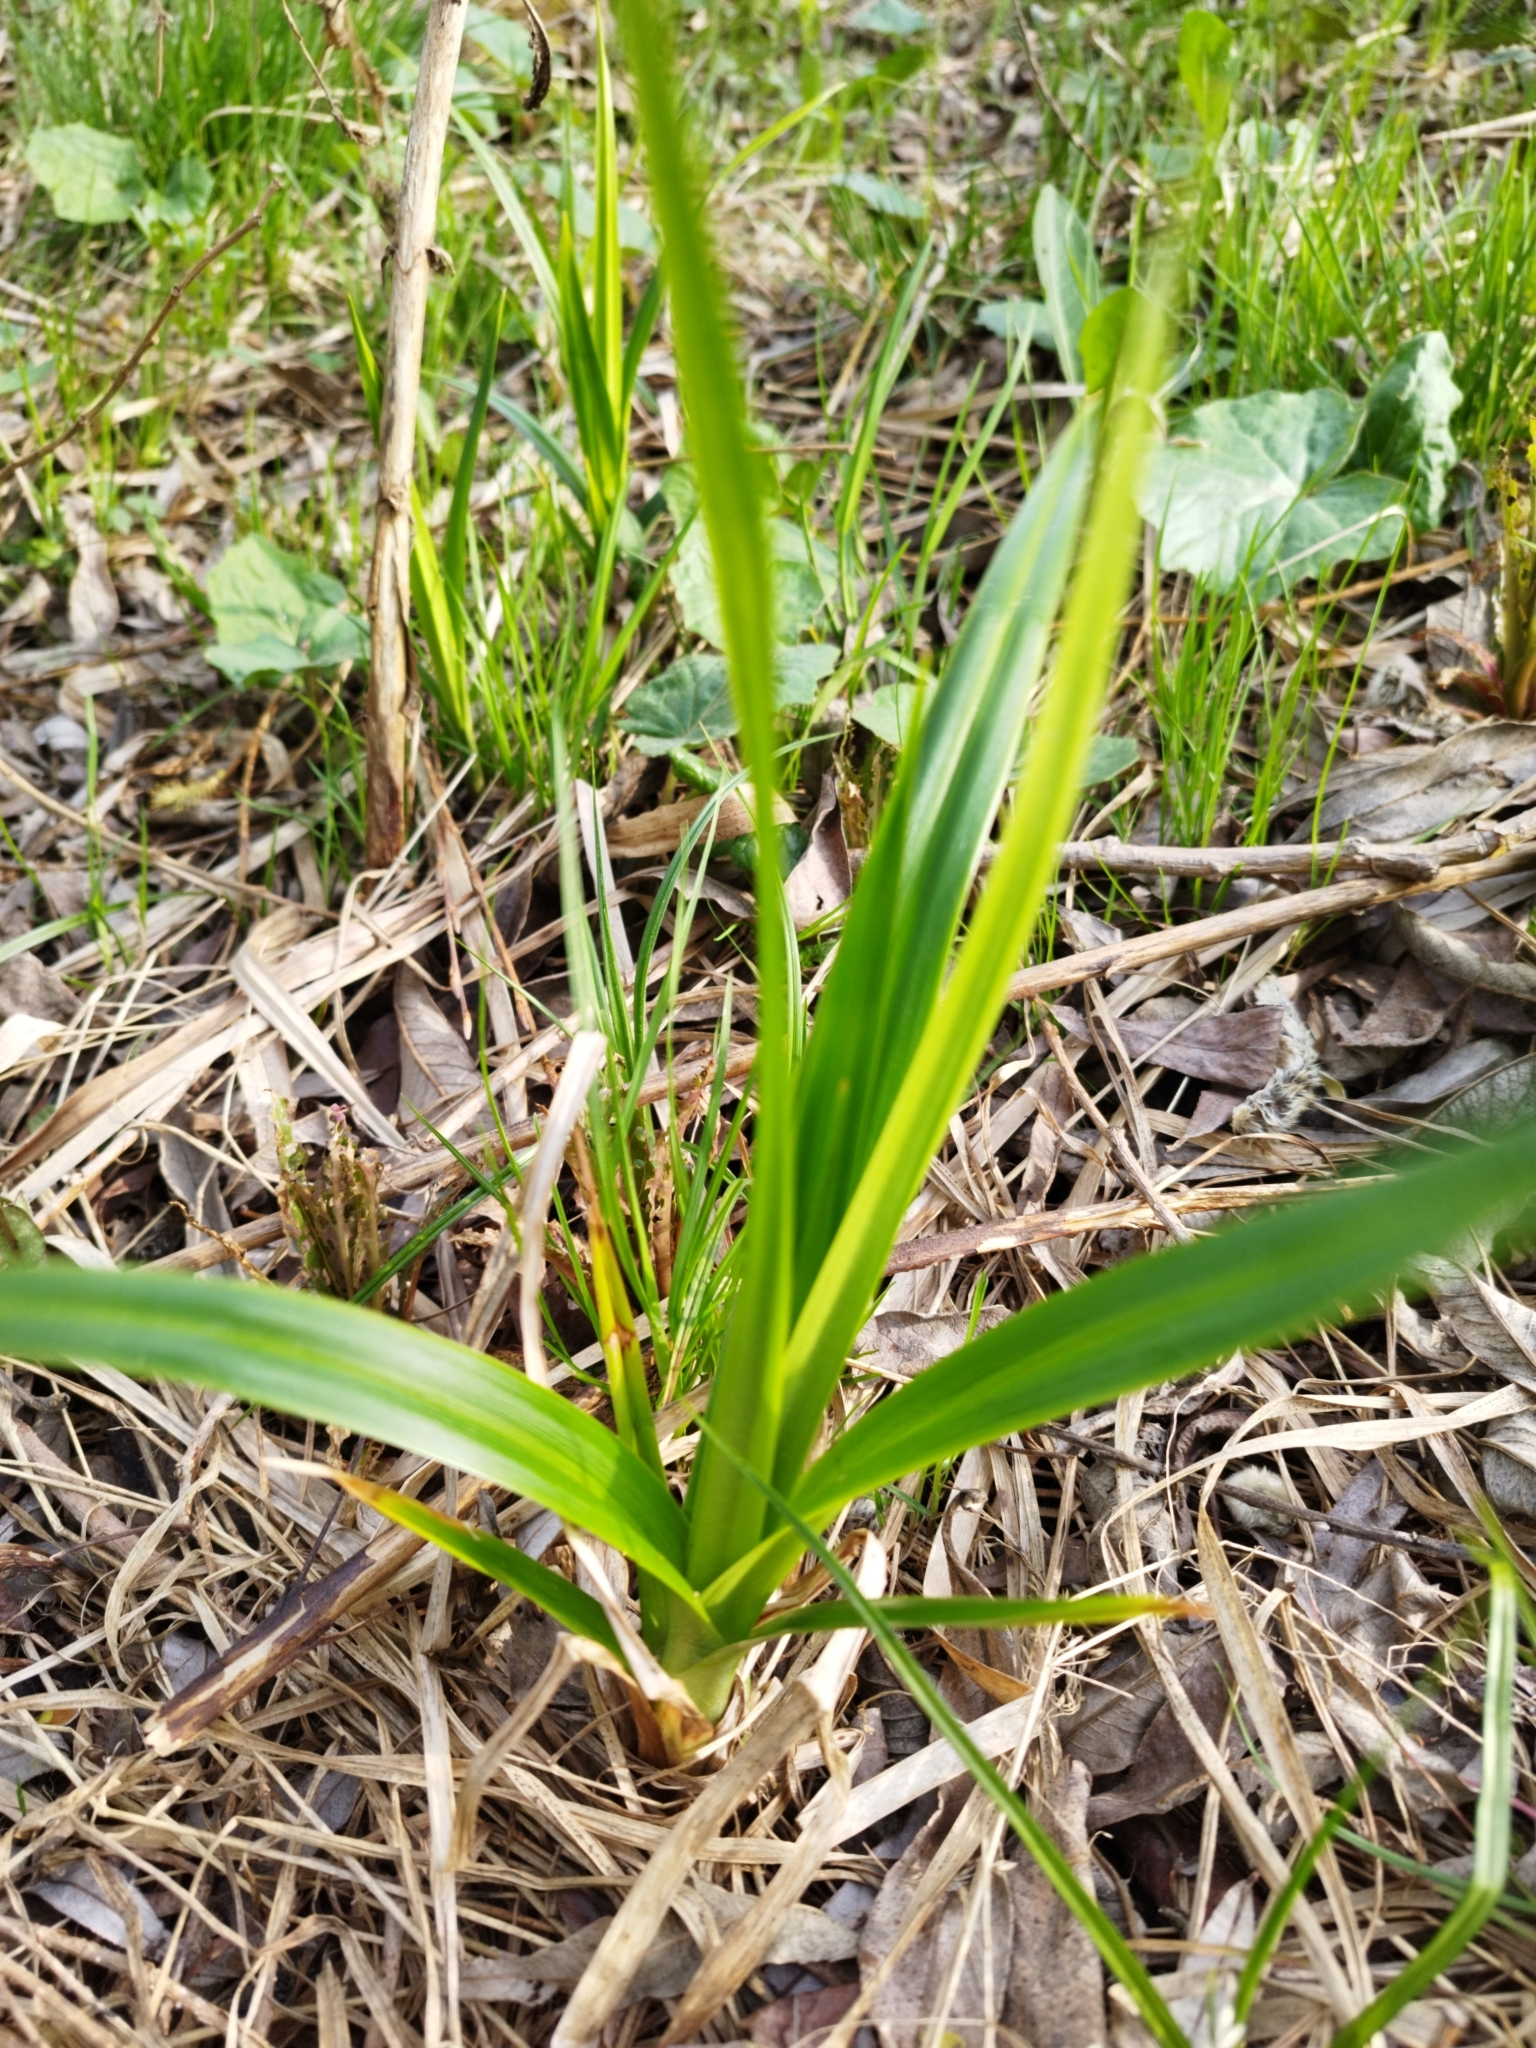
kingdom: Plantae
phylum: Tracheophyta
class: Liliopsida
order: Poales
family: Cyperaceae
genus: Scirpus
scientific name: Scirpus sylvaticus
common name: Wood club-rush
